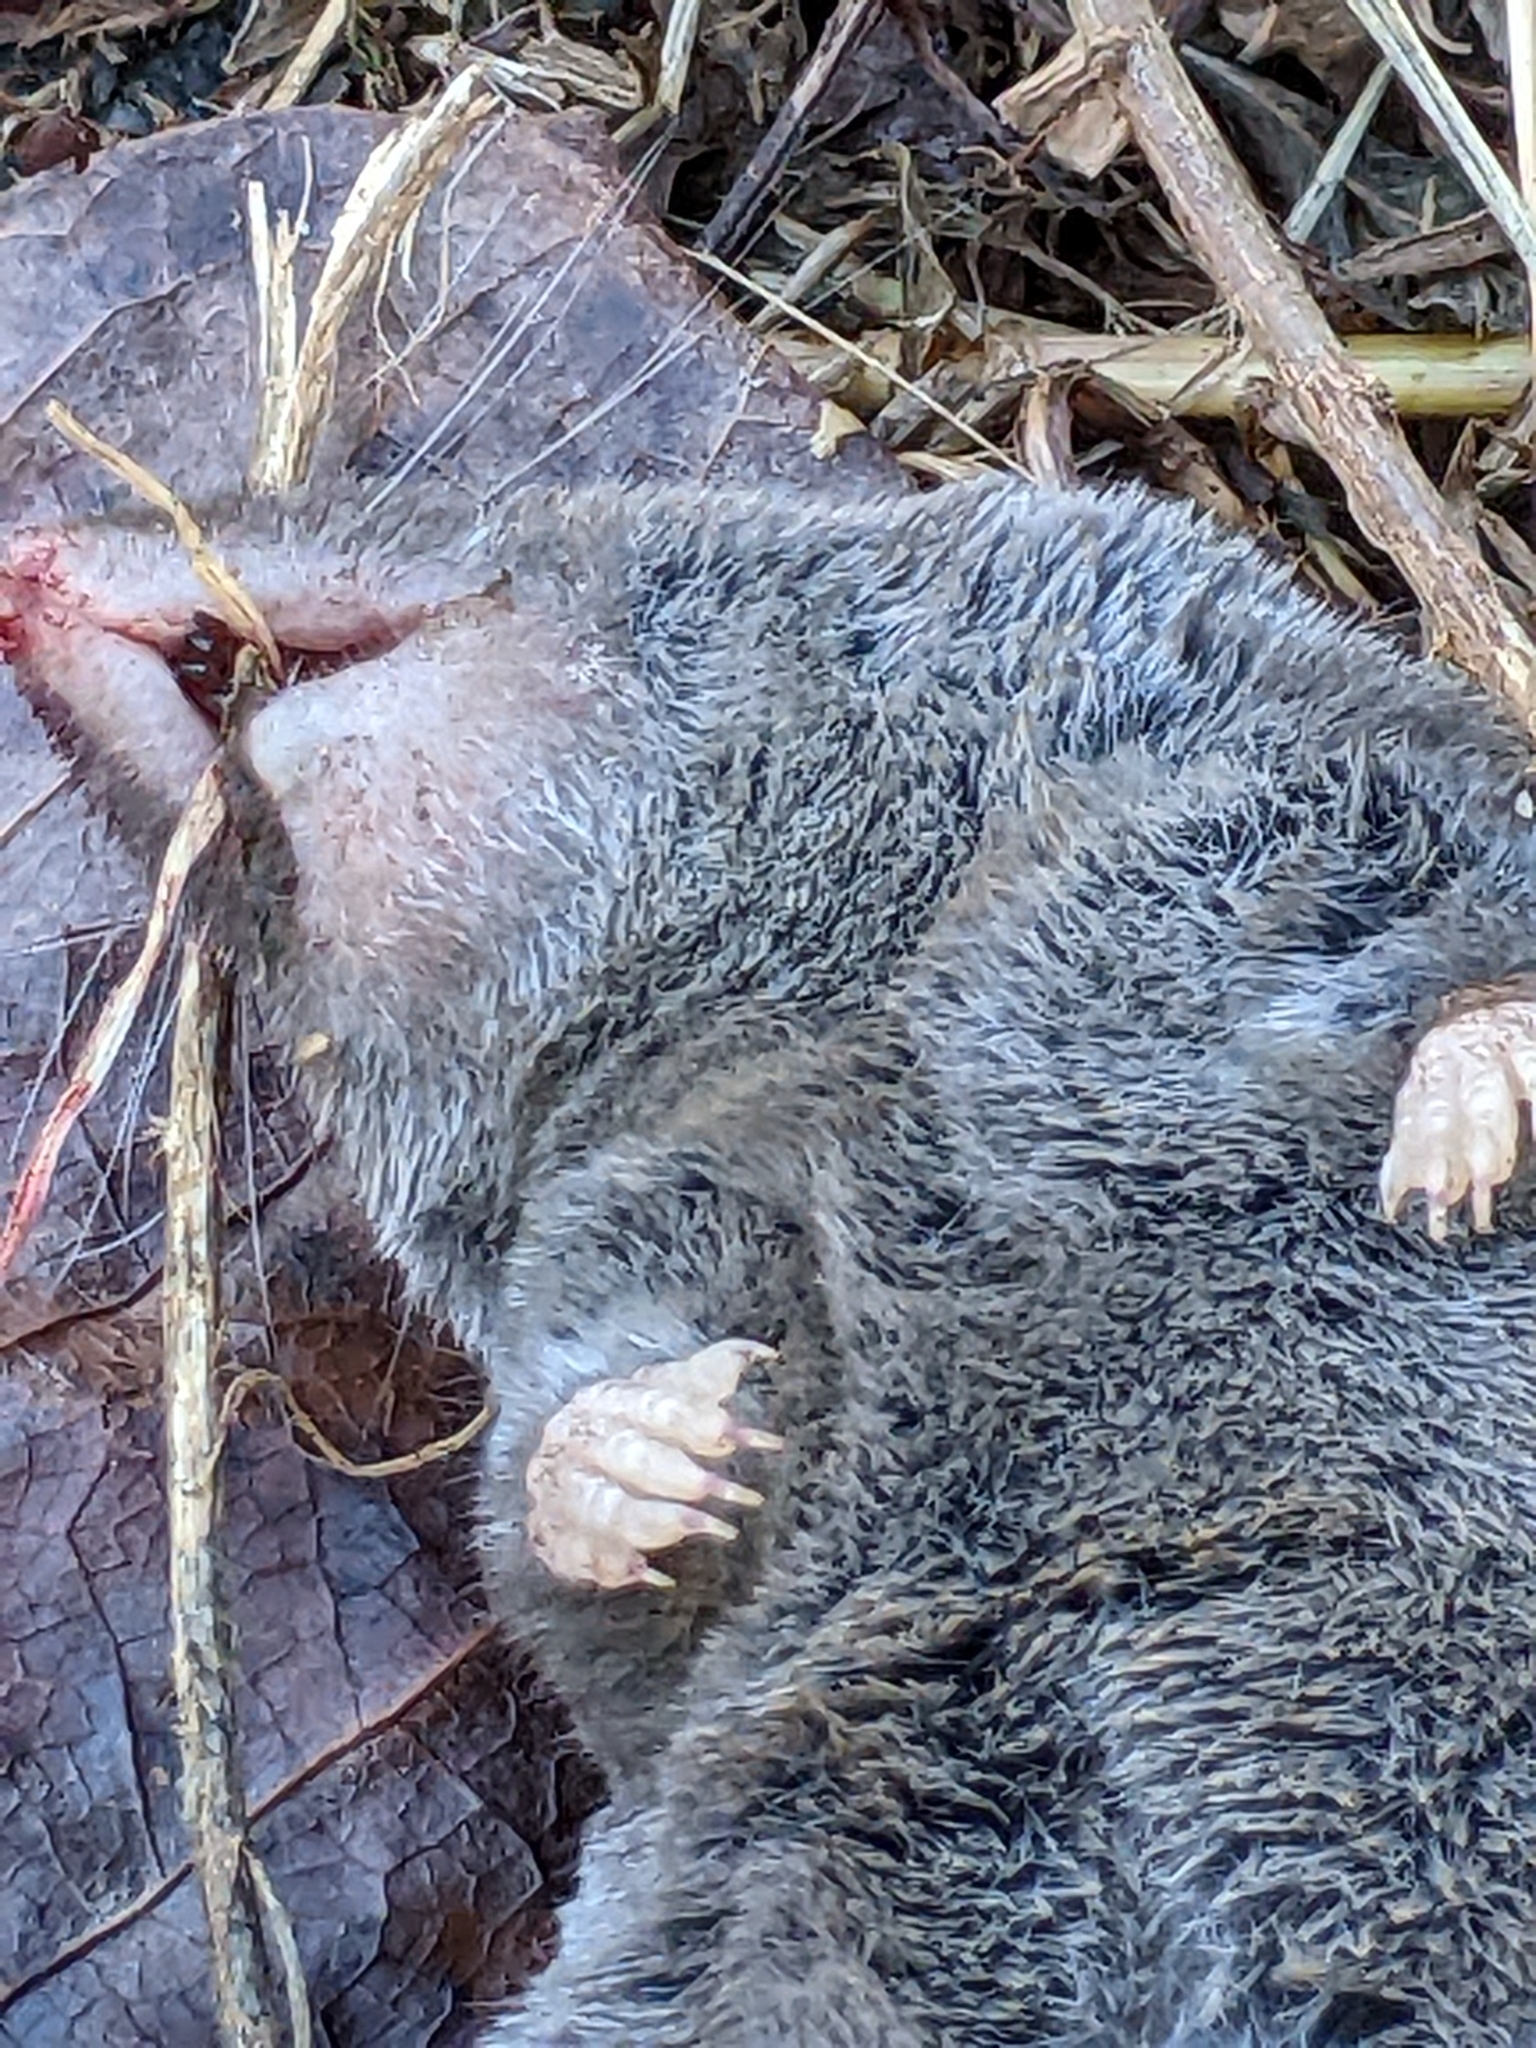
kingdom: Animalia
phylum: Chordata
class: Mammalia
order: Soricomorpha
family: Soricidae
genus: Blarina
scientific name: Blarina brevicauda
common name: Northern short-tailed shrew
